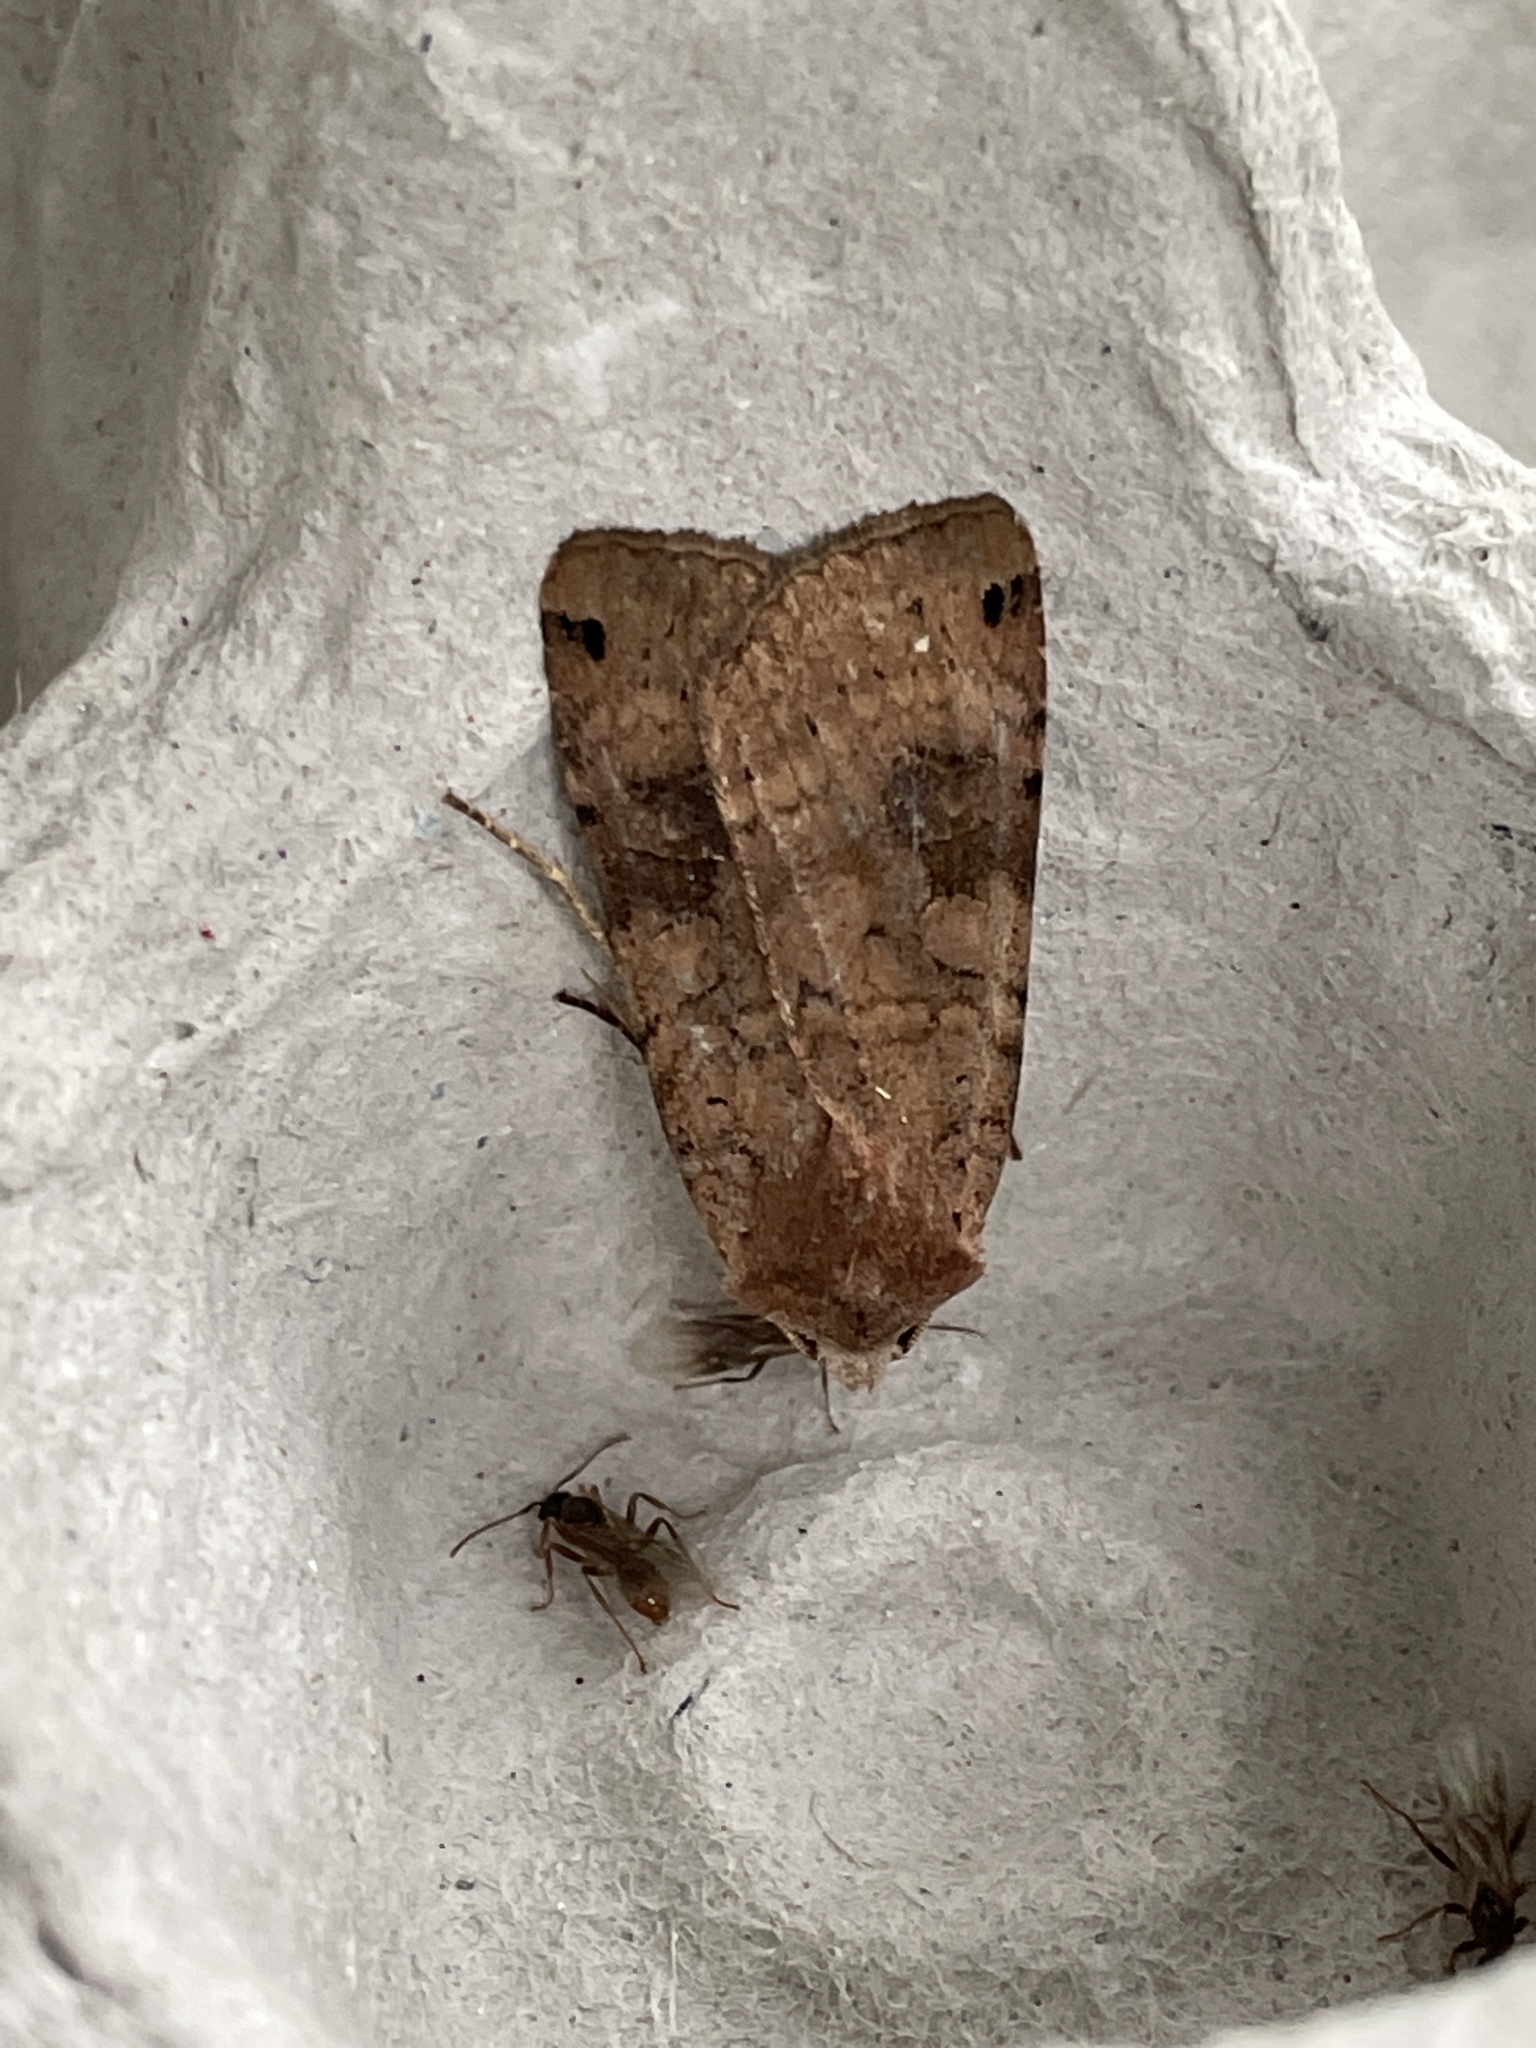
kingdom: Animalia
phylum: Arthropoda
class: Insecta
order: Lepidoptera
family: Noctuidae
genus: Xestia
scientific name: Xestia baja
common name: Dotted clay
